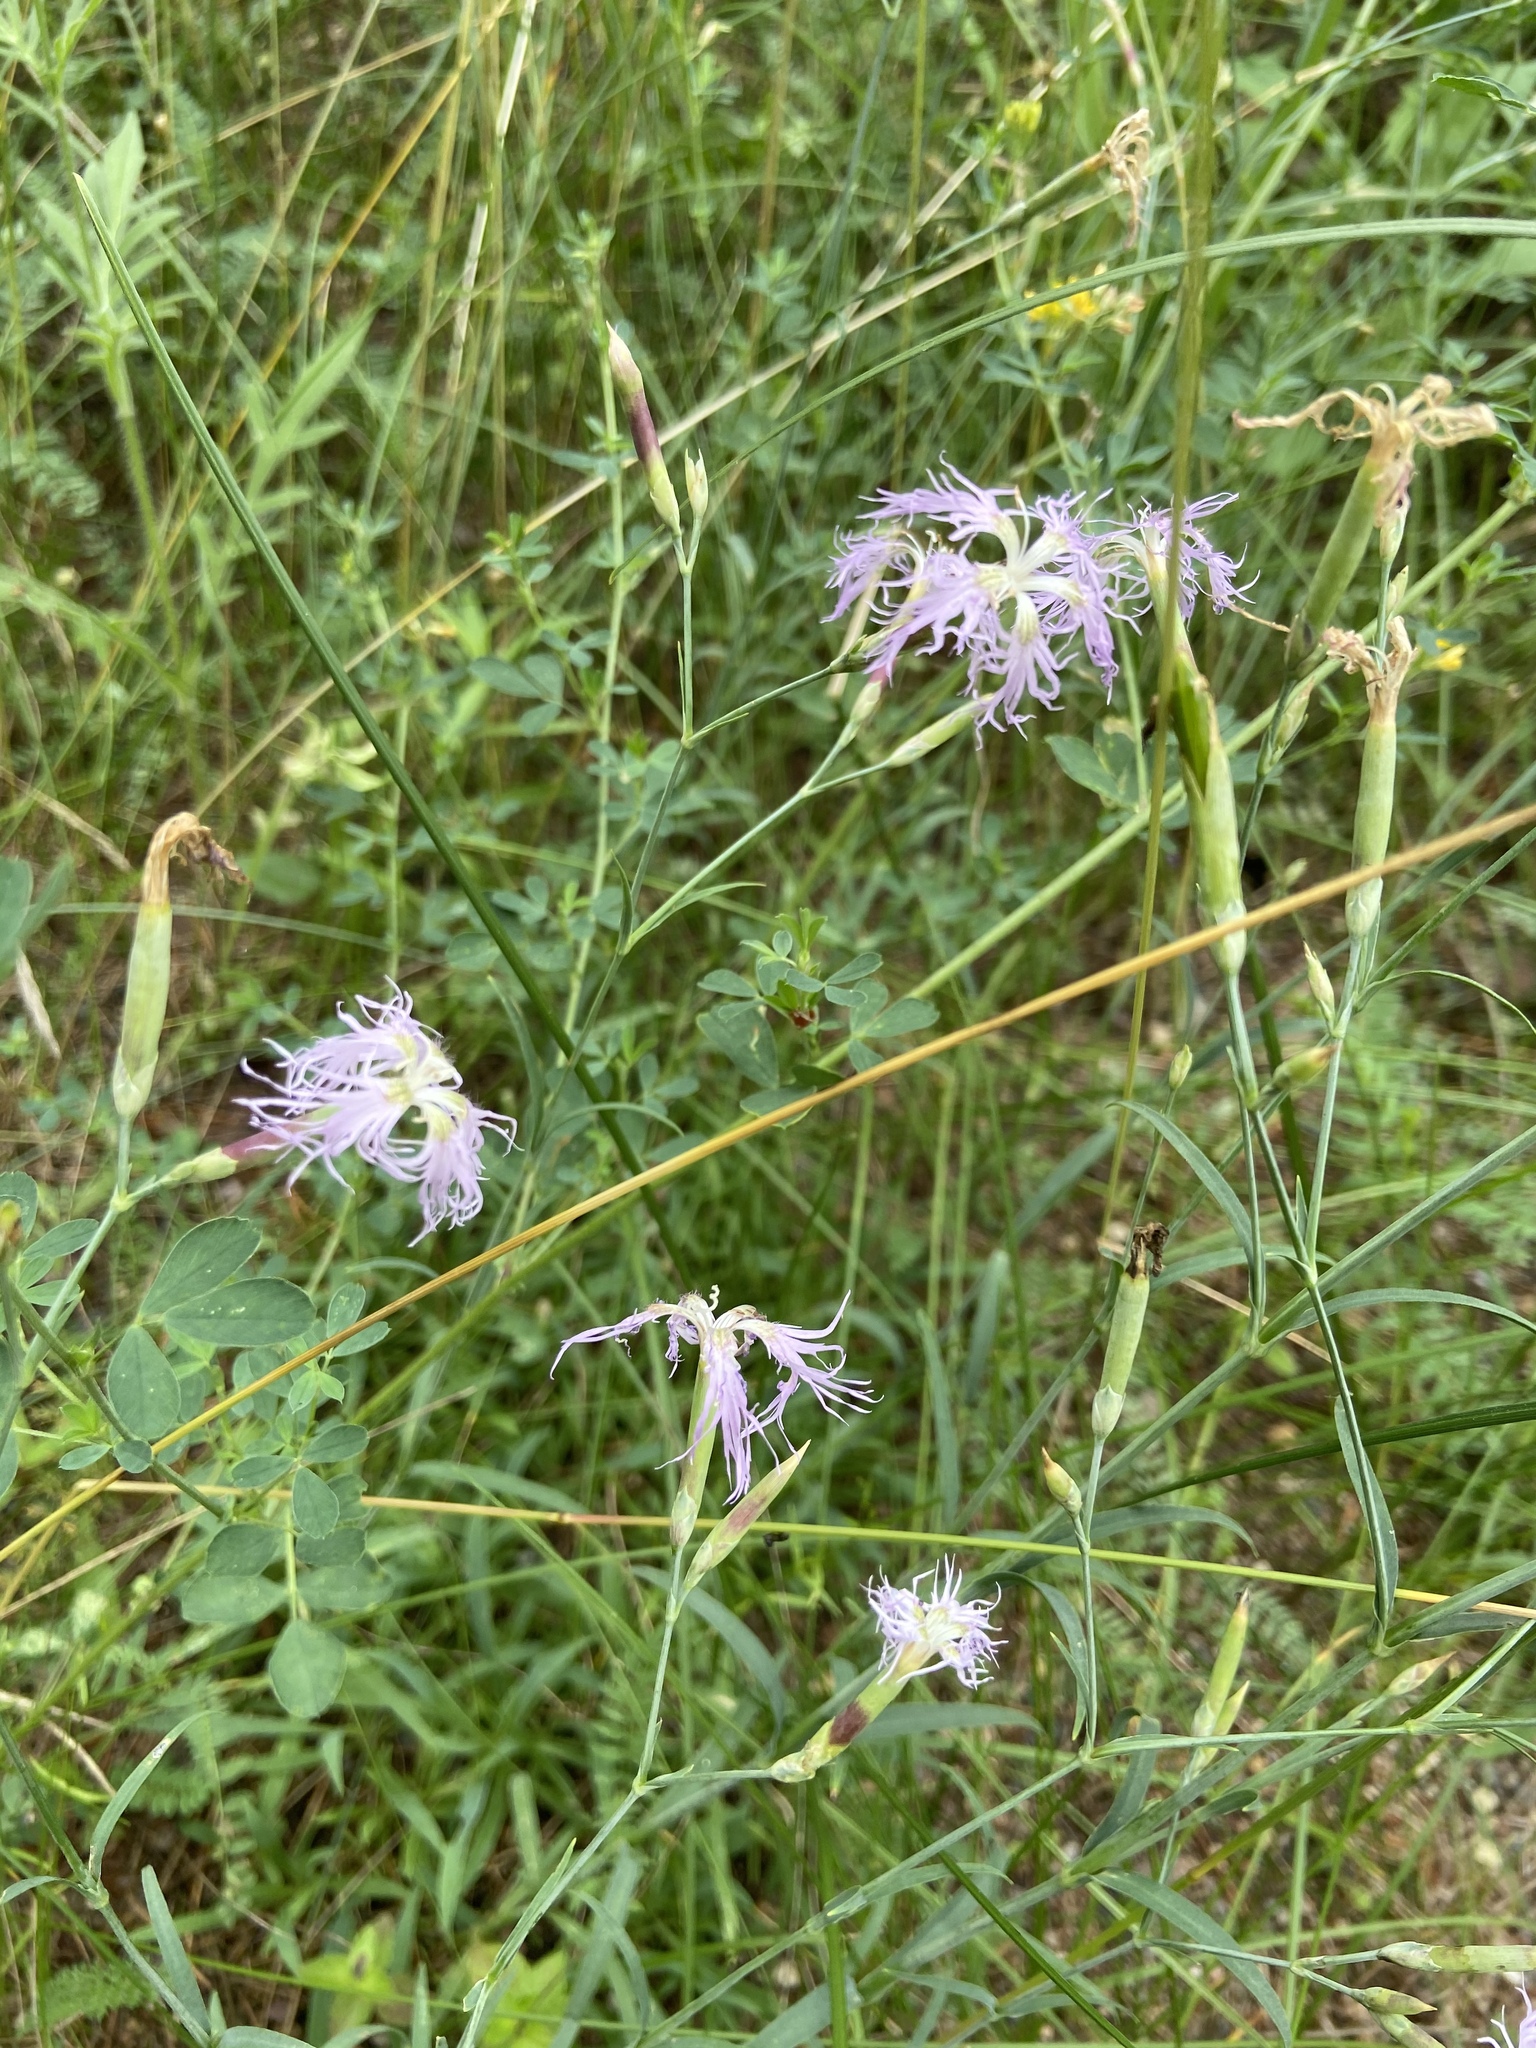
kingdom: Plantae
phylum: Tracheophyta
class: Magnoliopsida
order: Caryophyllales
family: Caryophyllaceae
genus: Dianthus
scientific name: Dianthus superbus
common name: Fringed pink
